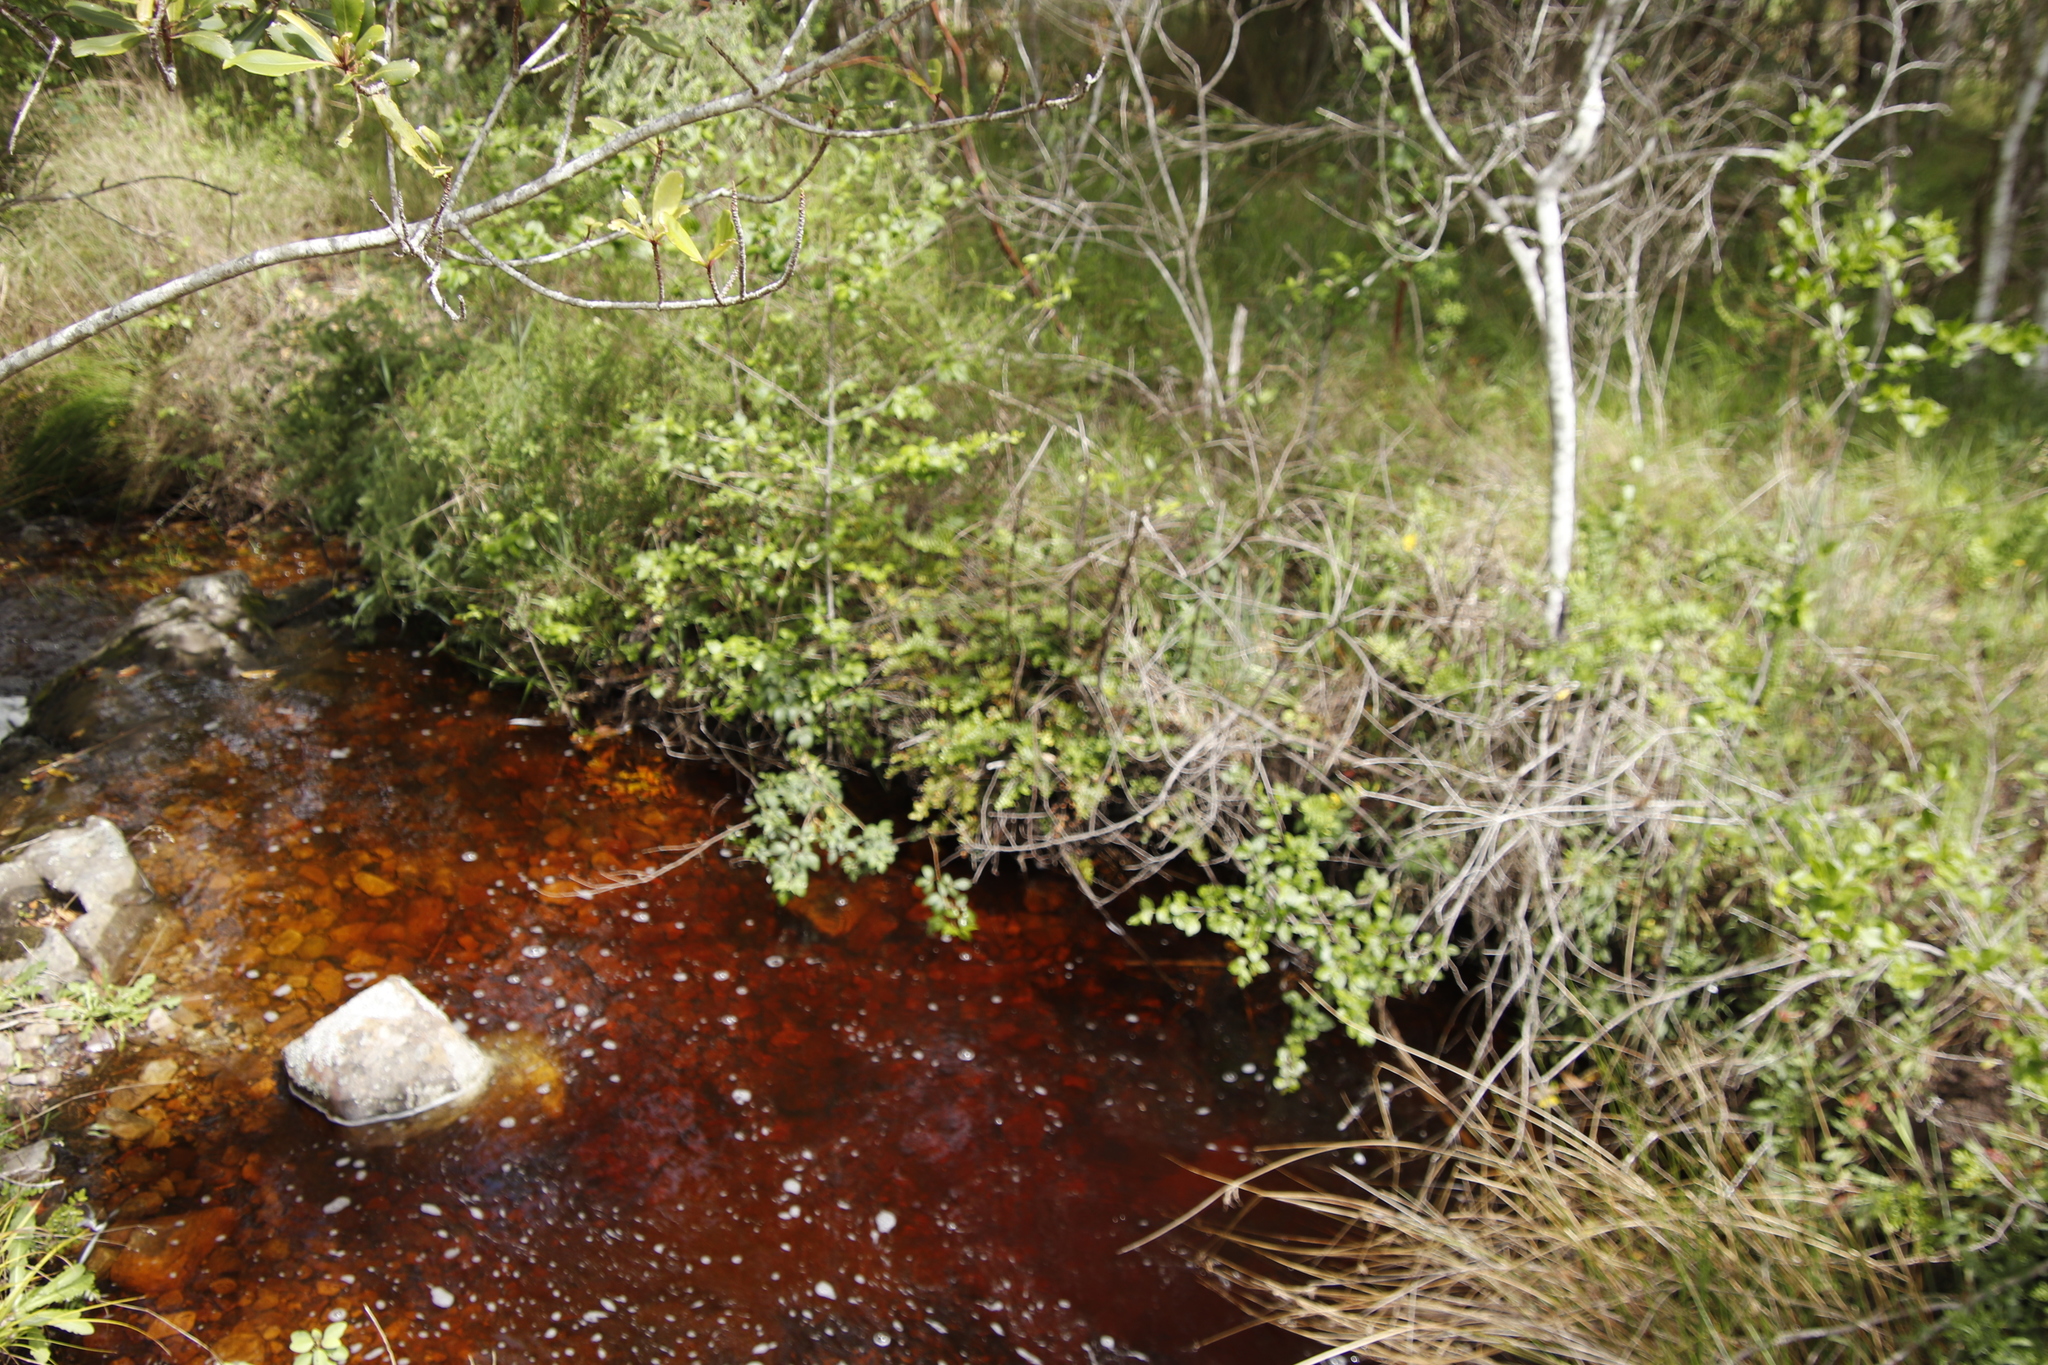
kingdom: Plantae
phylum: Tracheophyta
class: Polypodiopsida
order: Polypodiales
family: Pteridaceae
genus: Pellaea
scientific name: Pellaea pteroides
